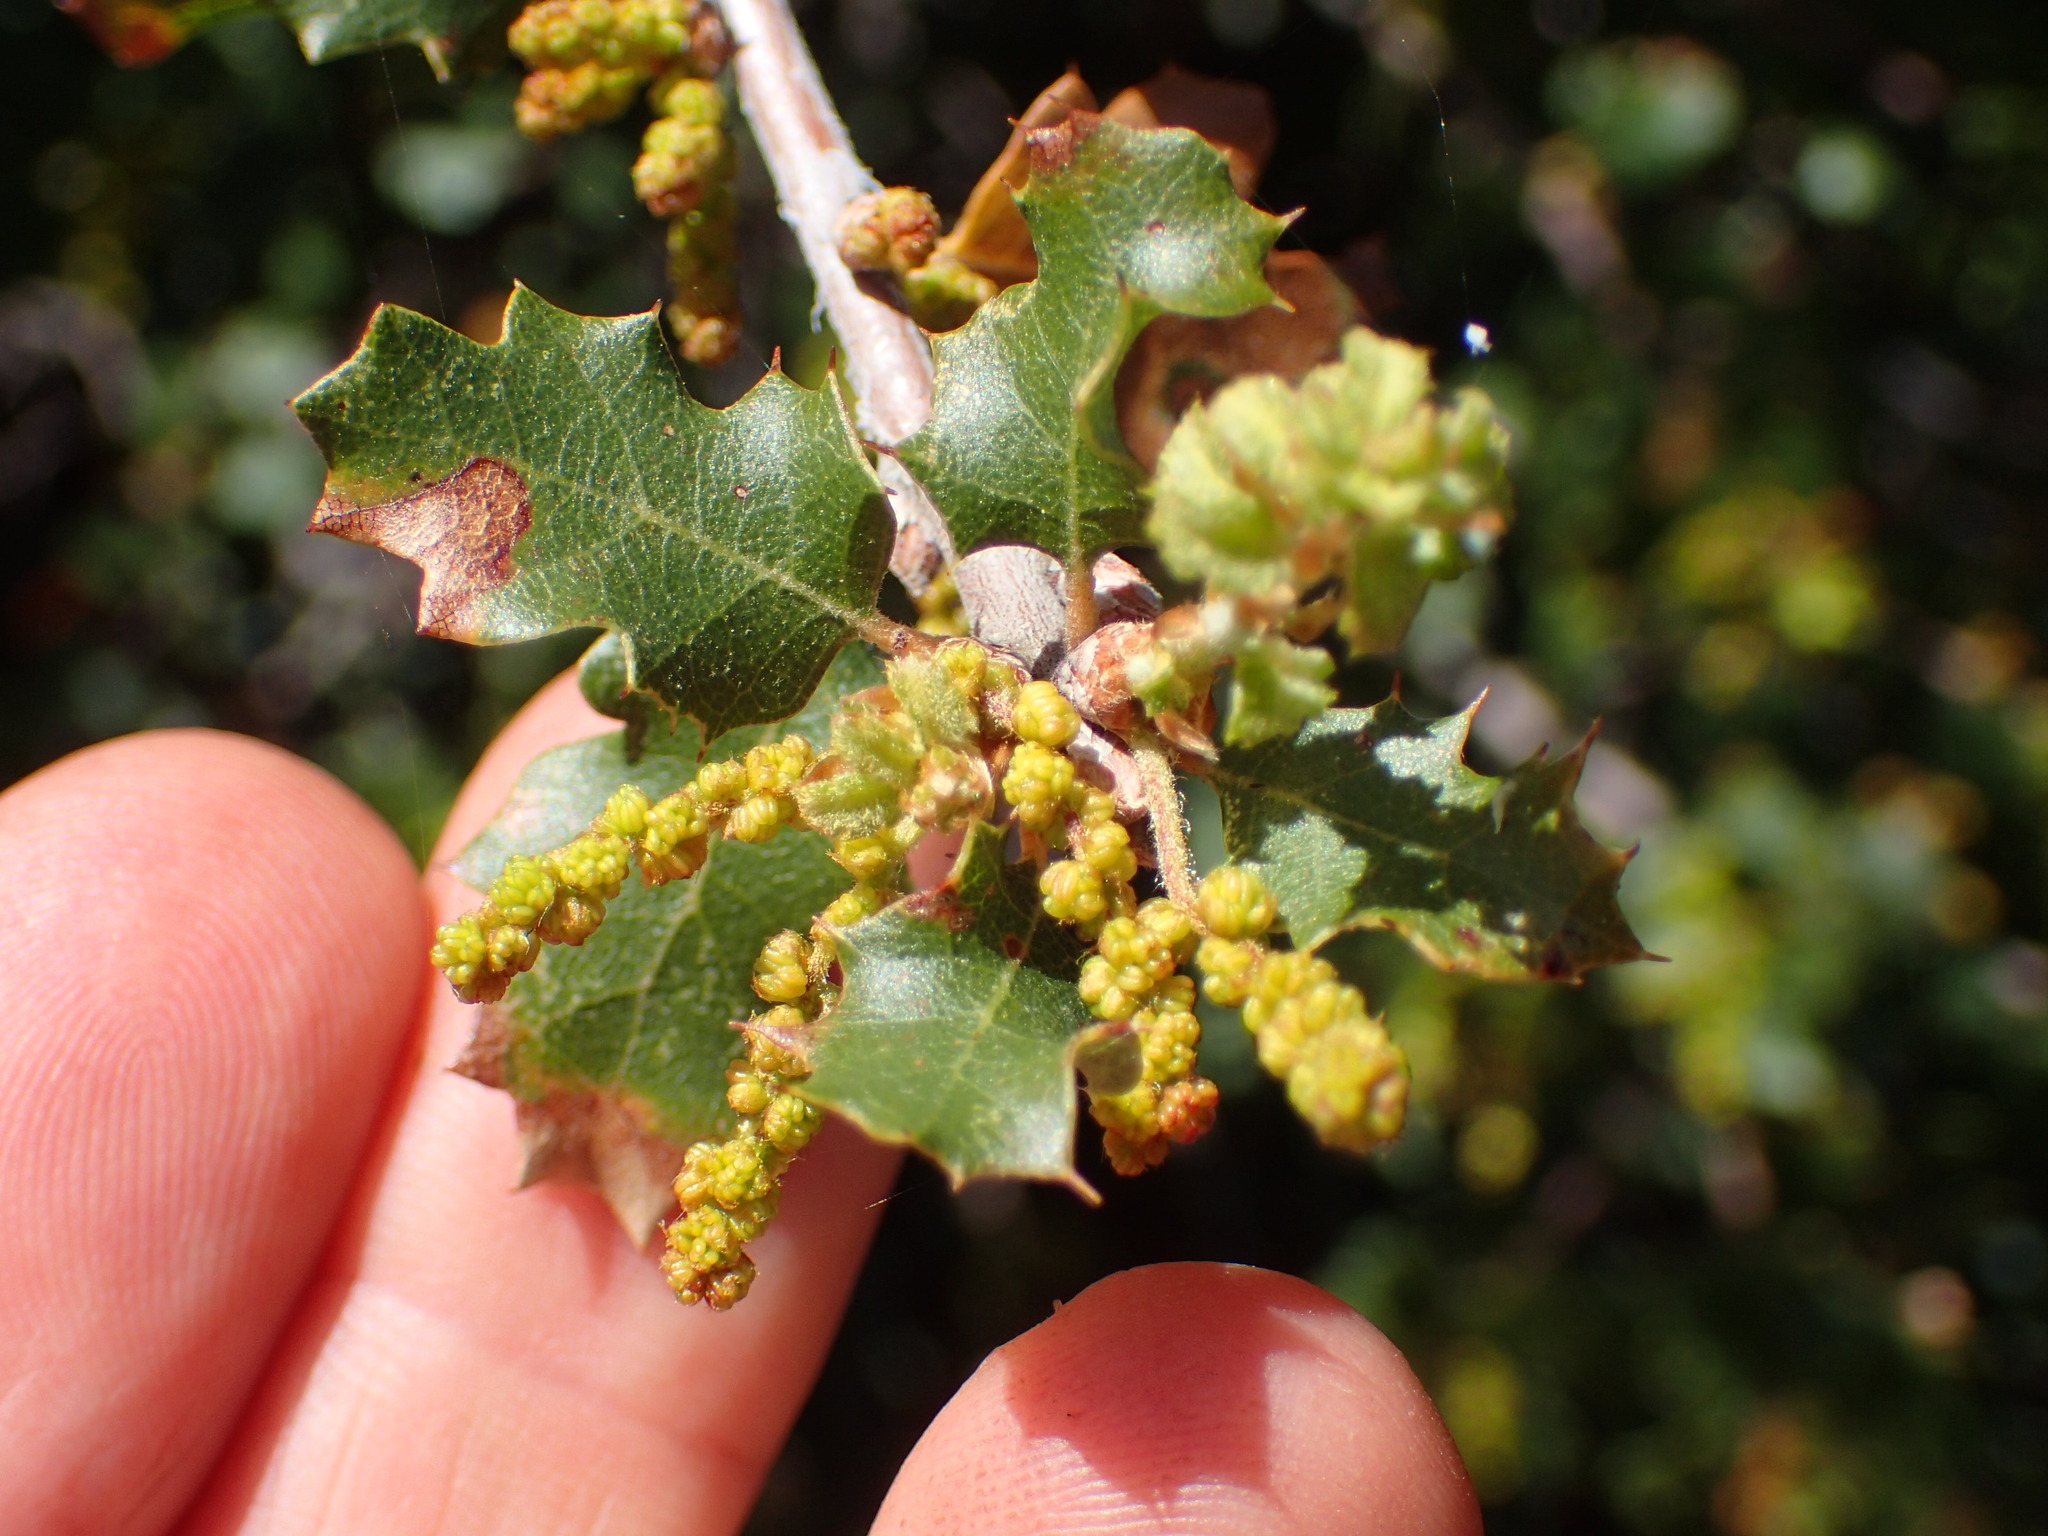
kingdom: Plantae
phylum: Tracheophyta
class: Magnoliopsida
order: Fagales
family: Fagaceae
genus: Quercus
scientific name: Quercus berberidifolia
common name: California scrub oak
